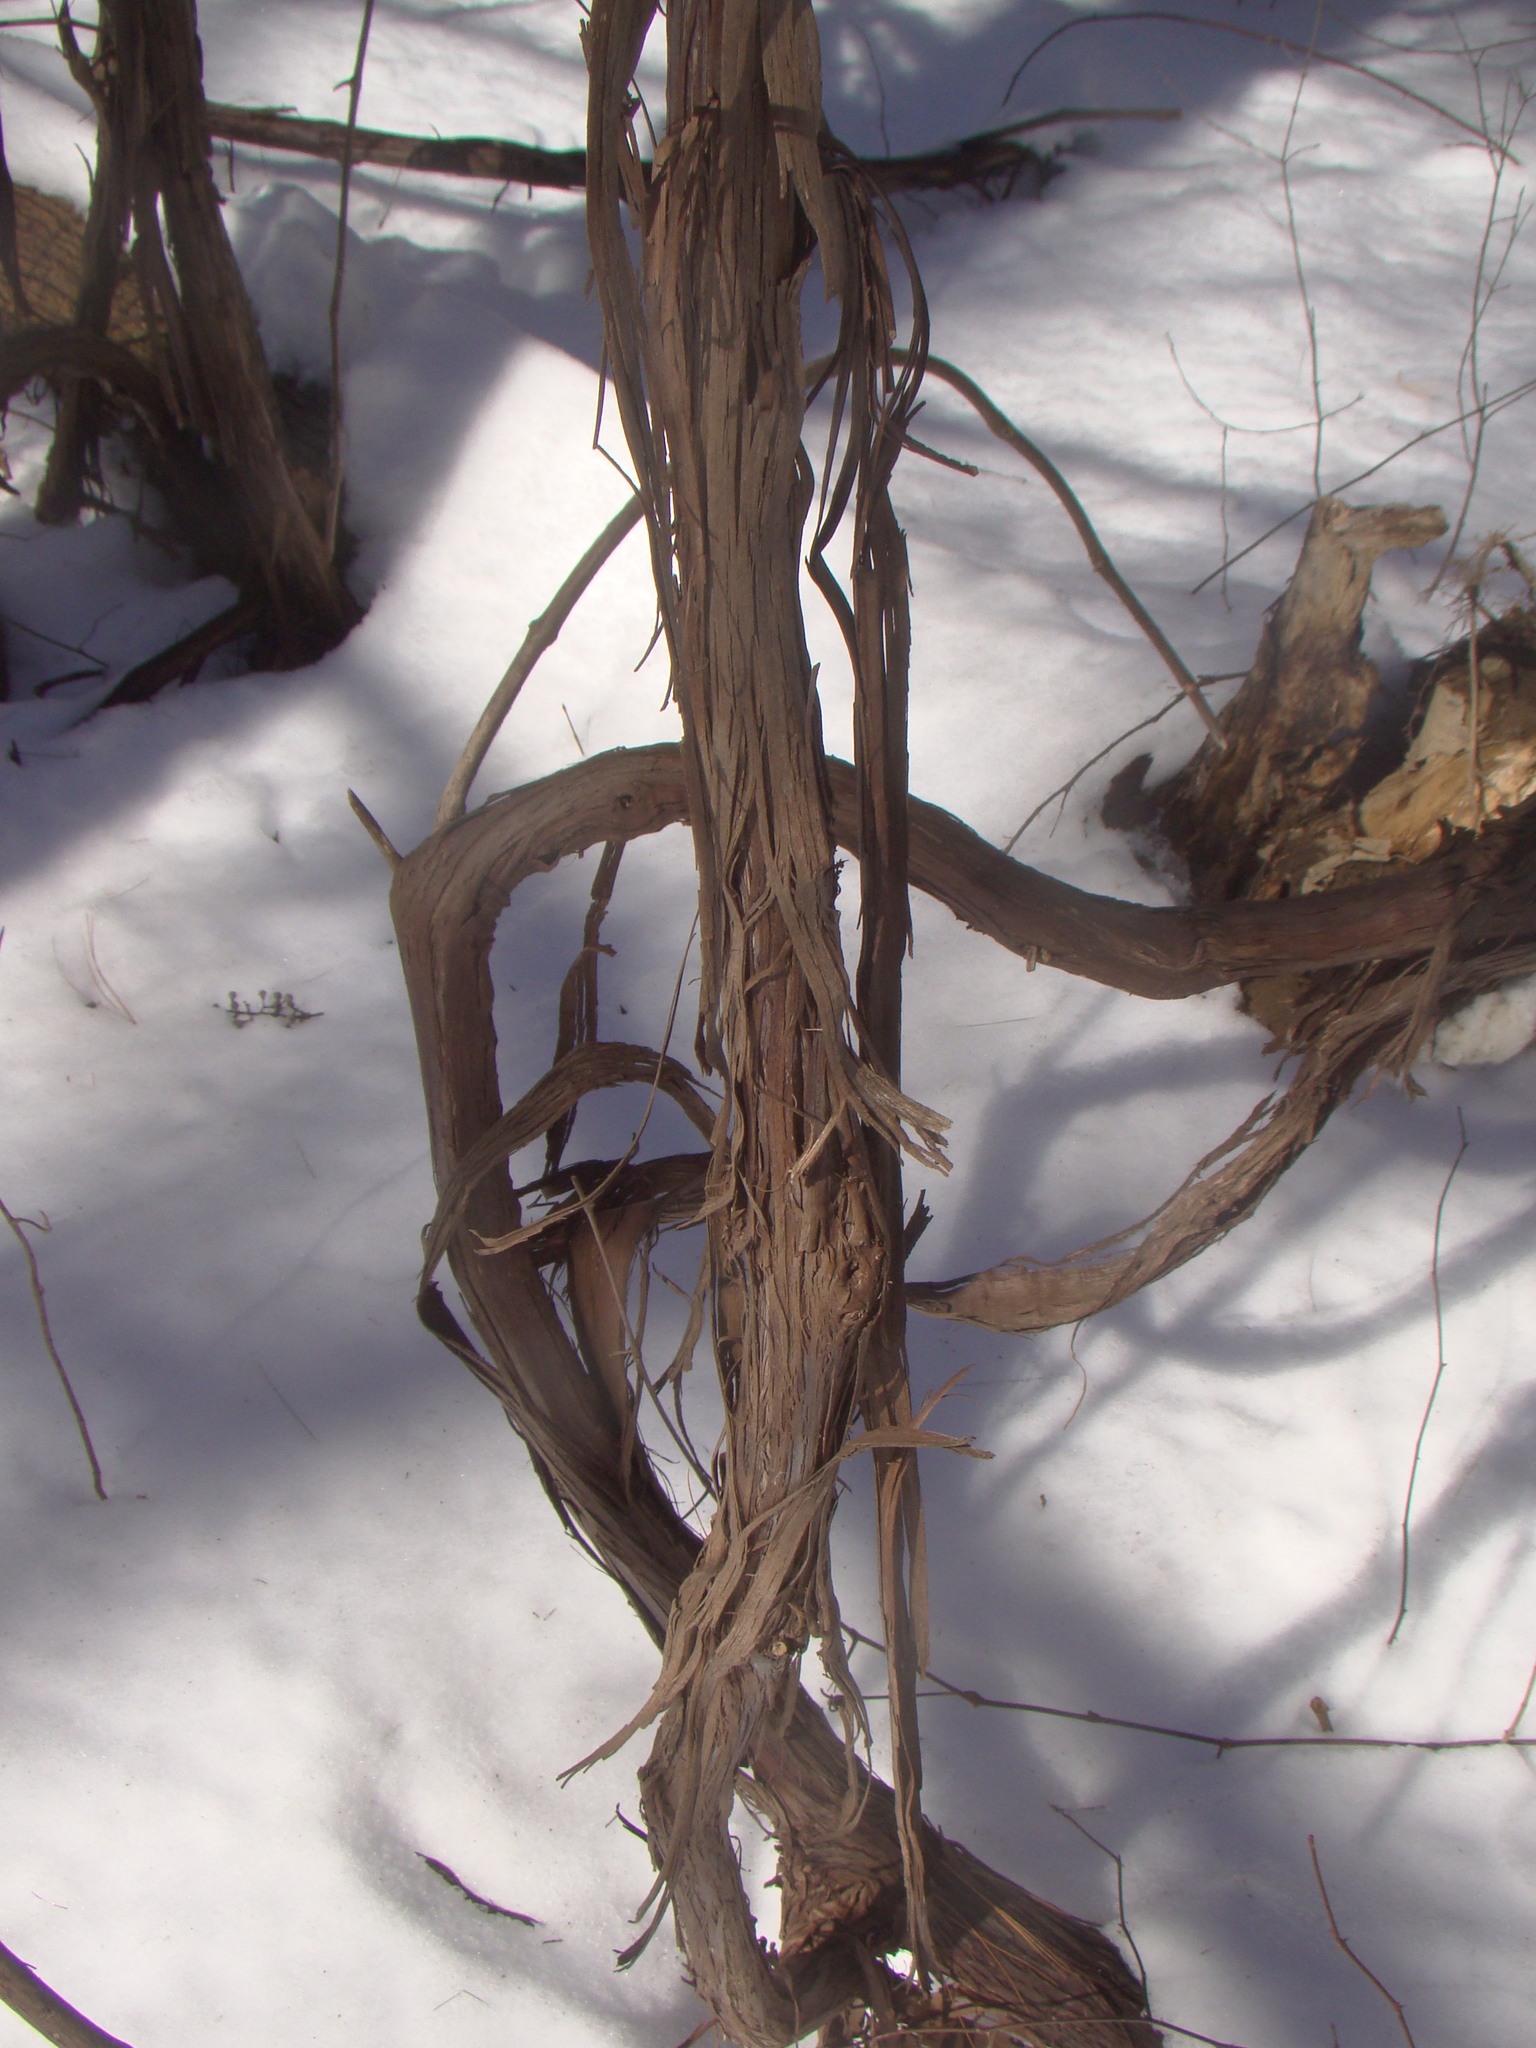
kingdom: Plantae
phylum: Tracheophyta
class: Magnoliopsida
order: Vitales
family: Vitaceae
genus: Vitis
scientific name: Vitis
